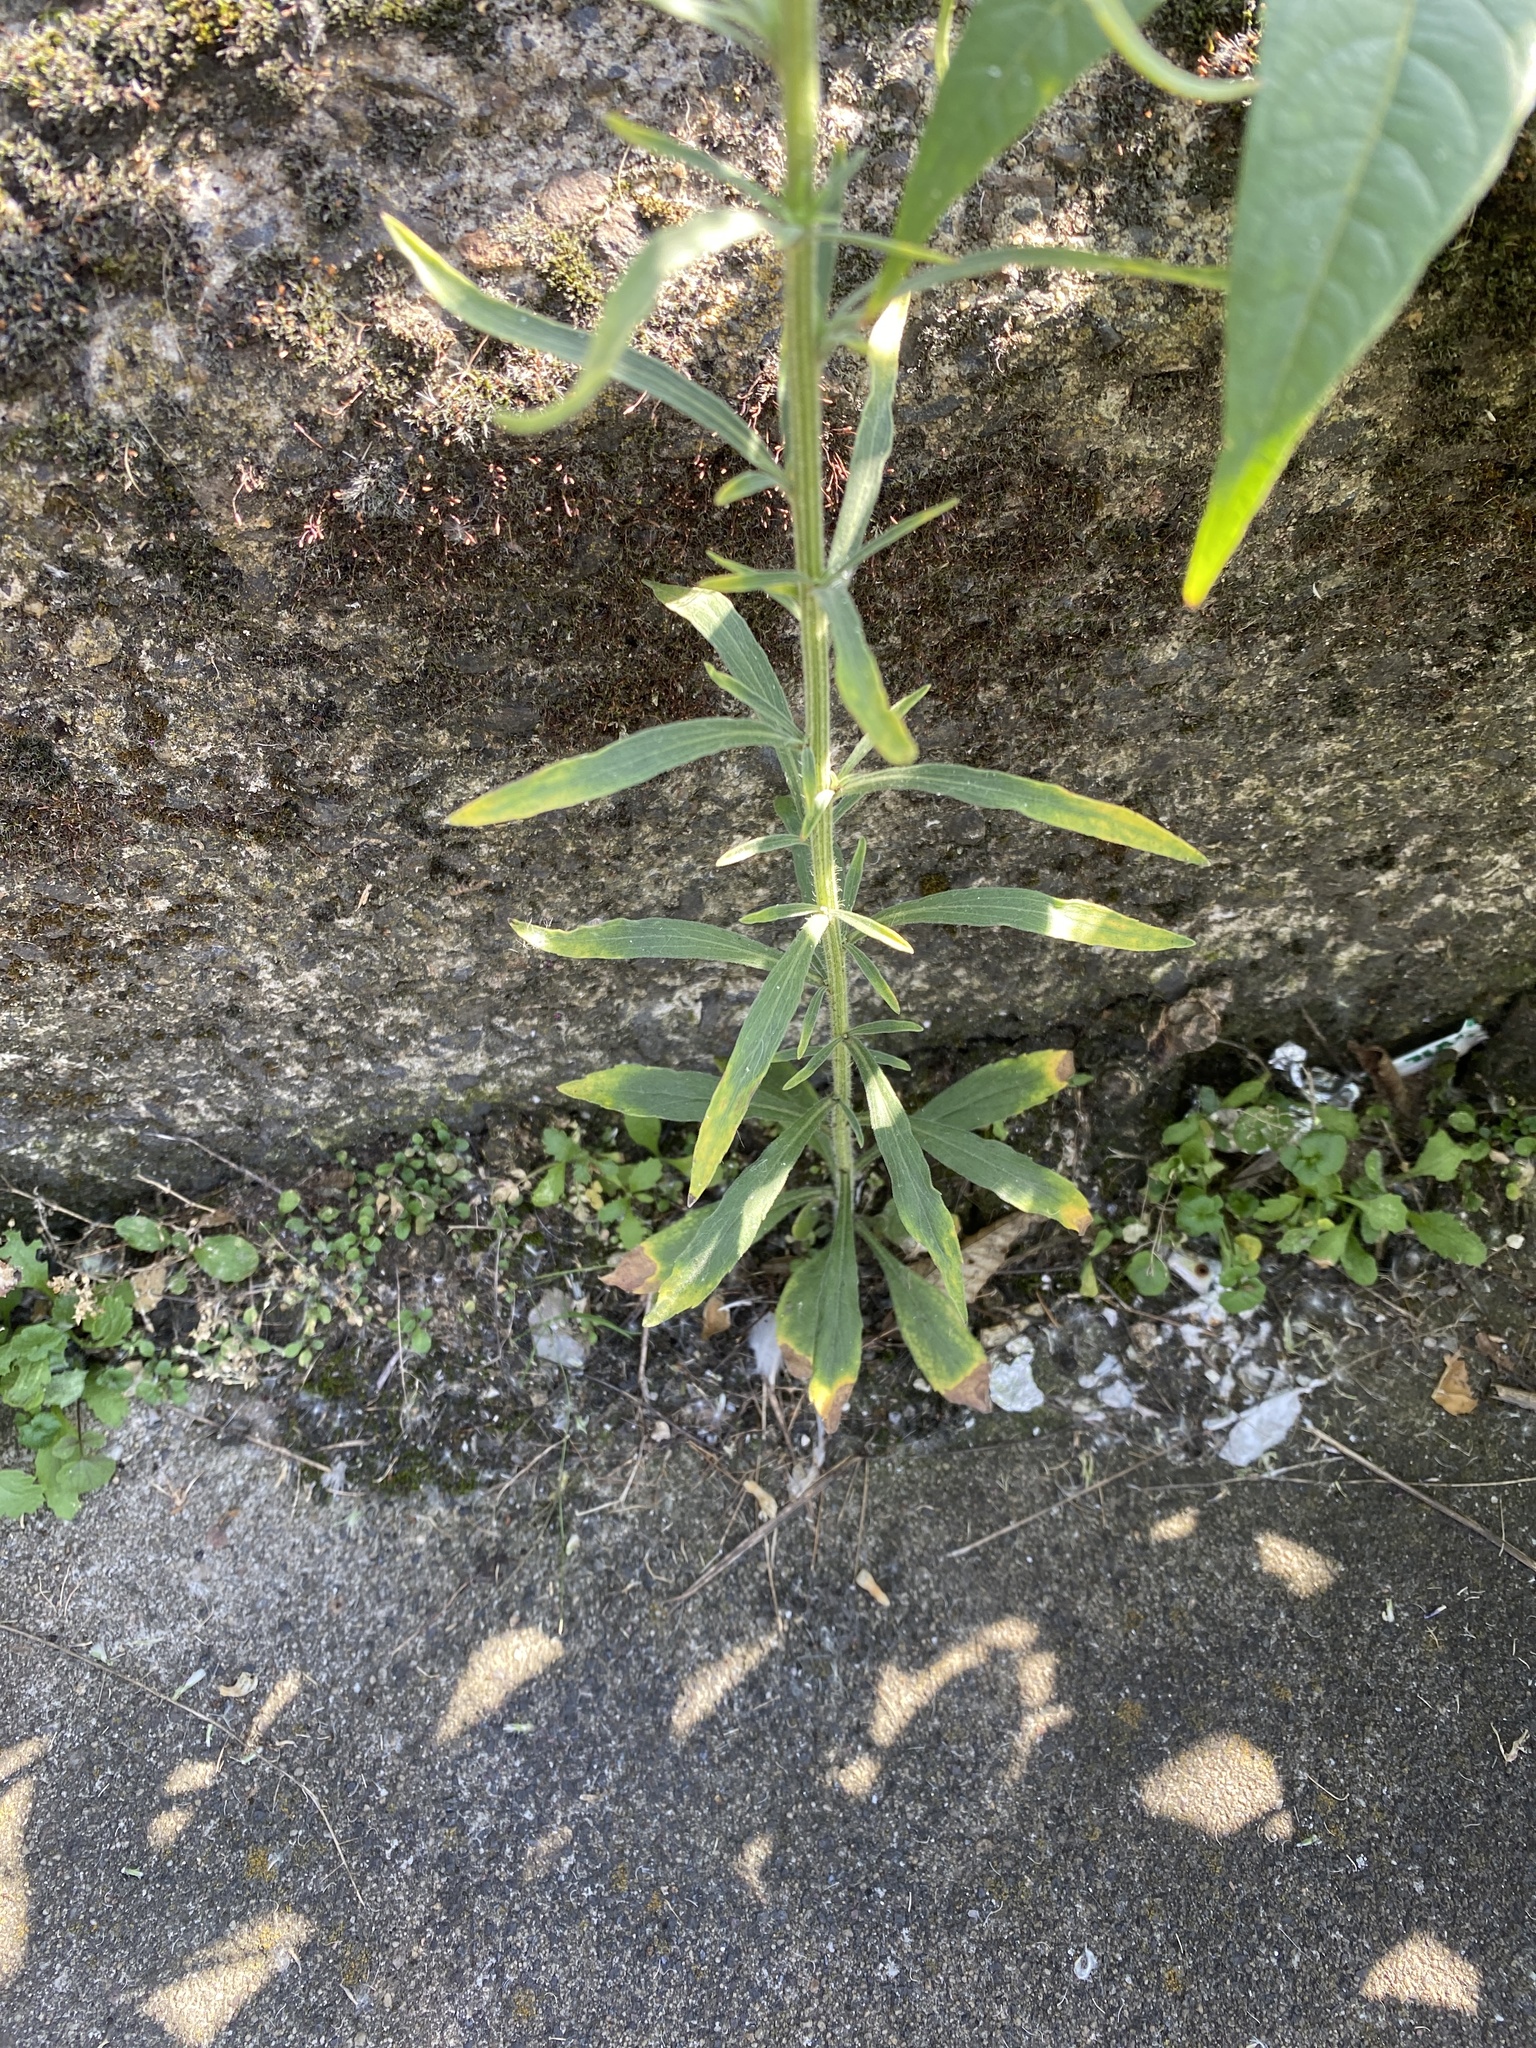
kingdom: Plantae
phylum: Tracheophyta
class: Magnoliopsida
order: Asterales
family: Asteraceae
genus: Erigeron
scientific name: Erigeron sumatrensis
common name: Daisy
